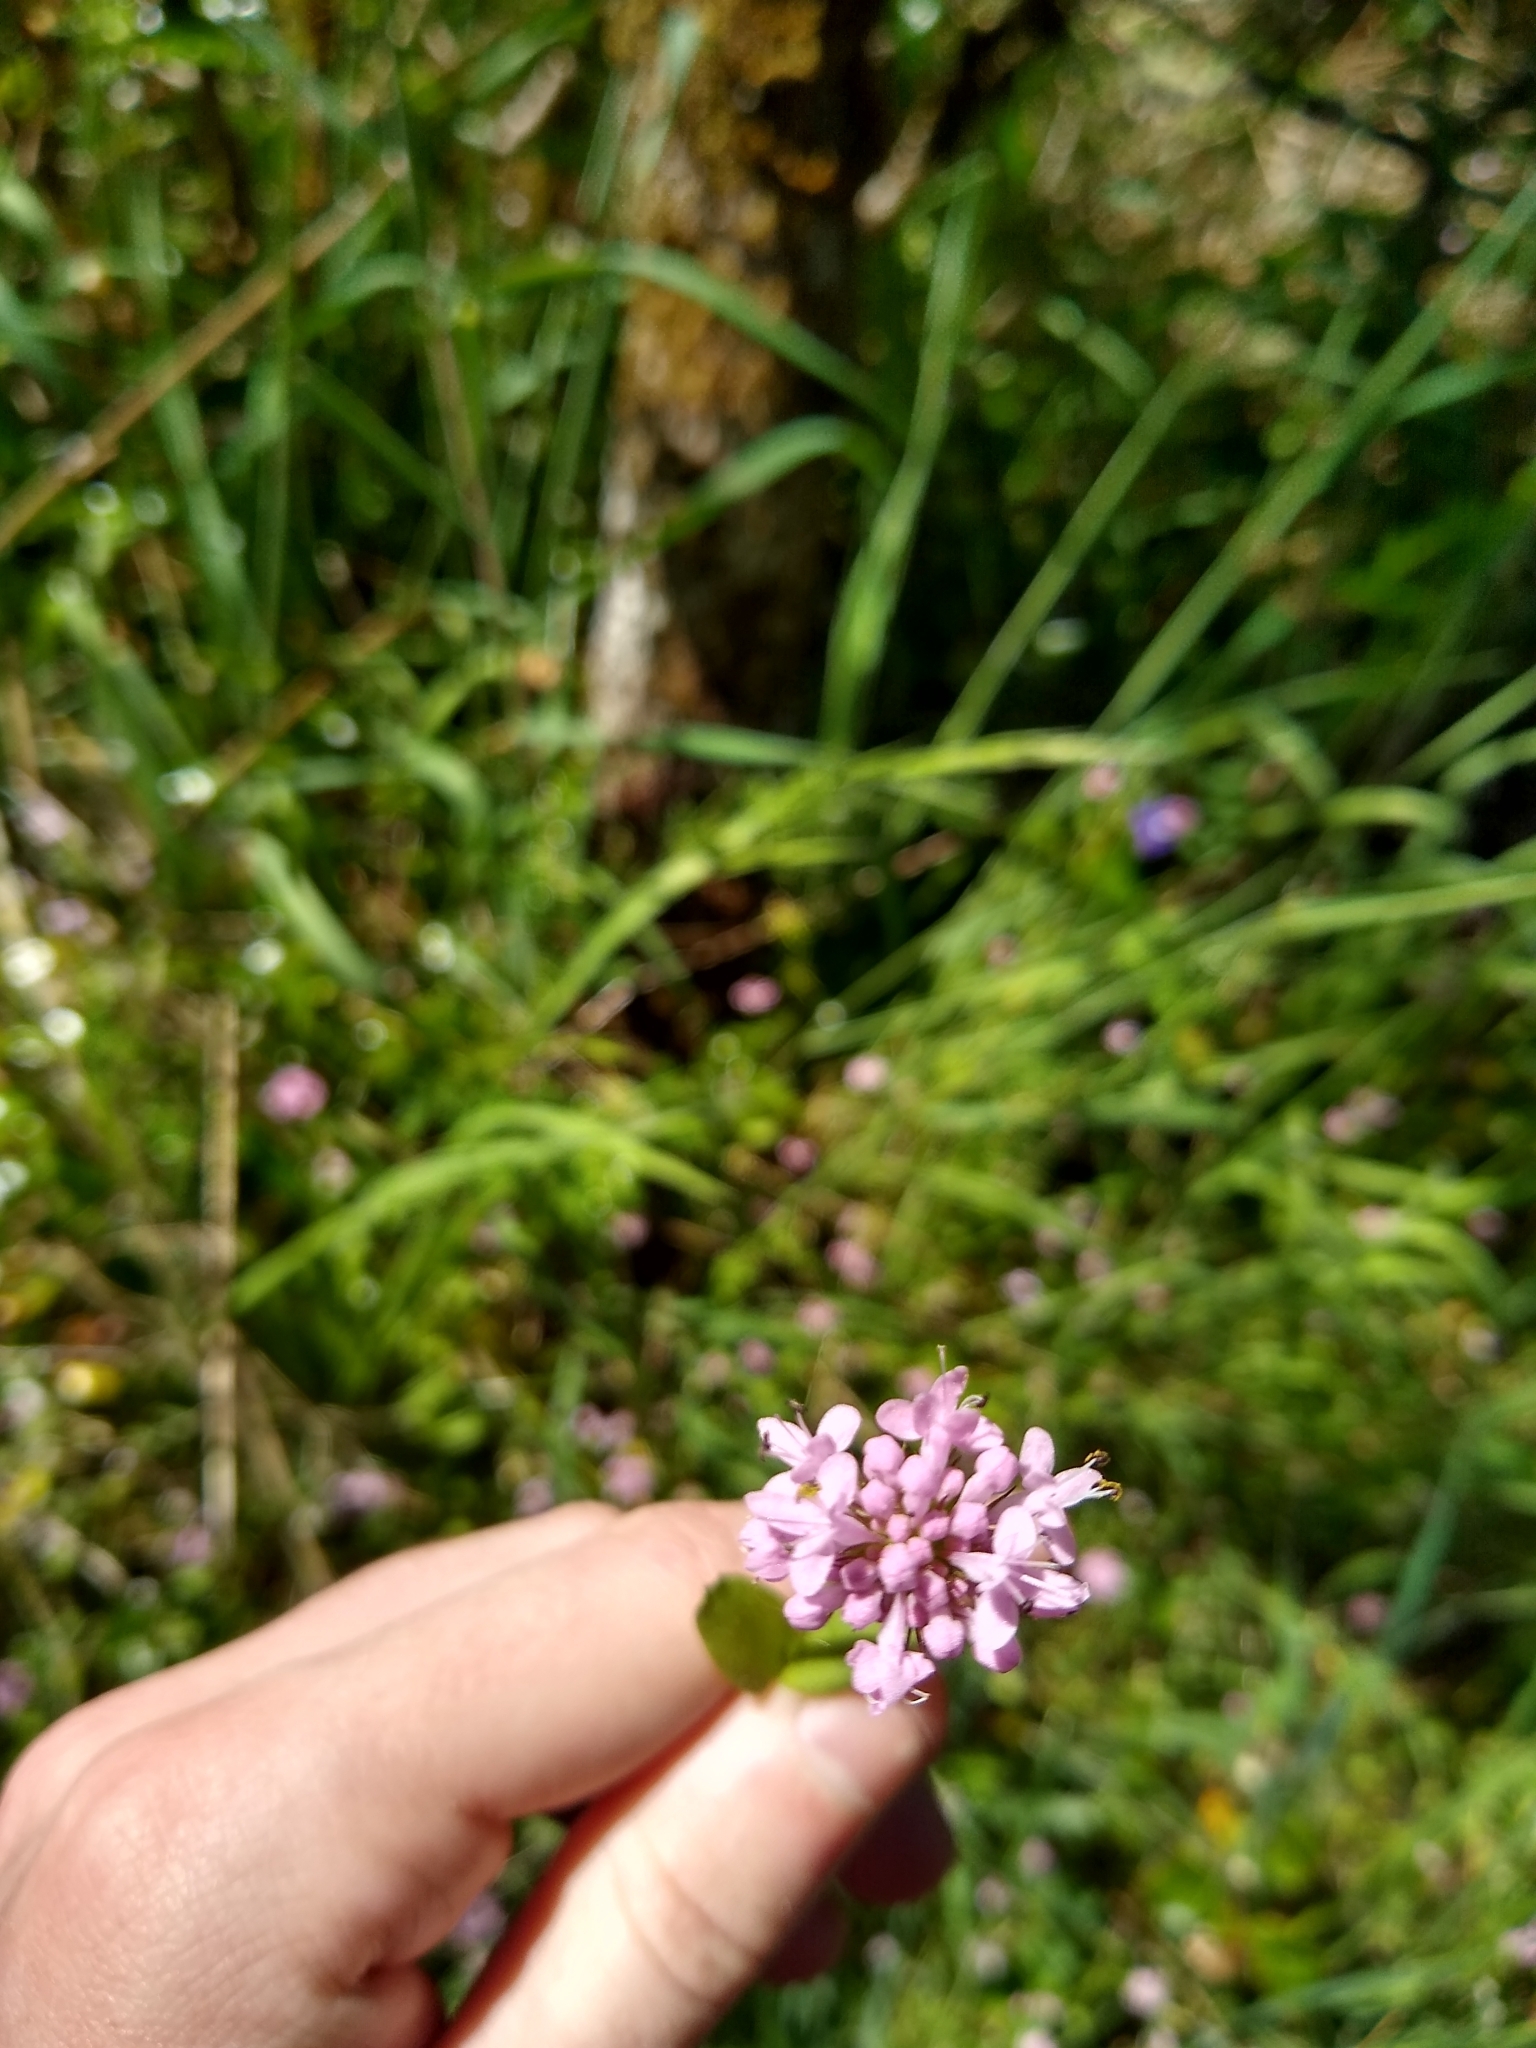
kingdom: Plantae
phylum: Tracheophyta
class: Magnoliopsida
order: Dipsacales
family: Caprifoliaceae
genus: Plectritis
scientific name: Plectritis congesta
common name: Pink plectritis
